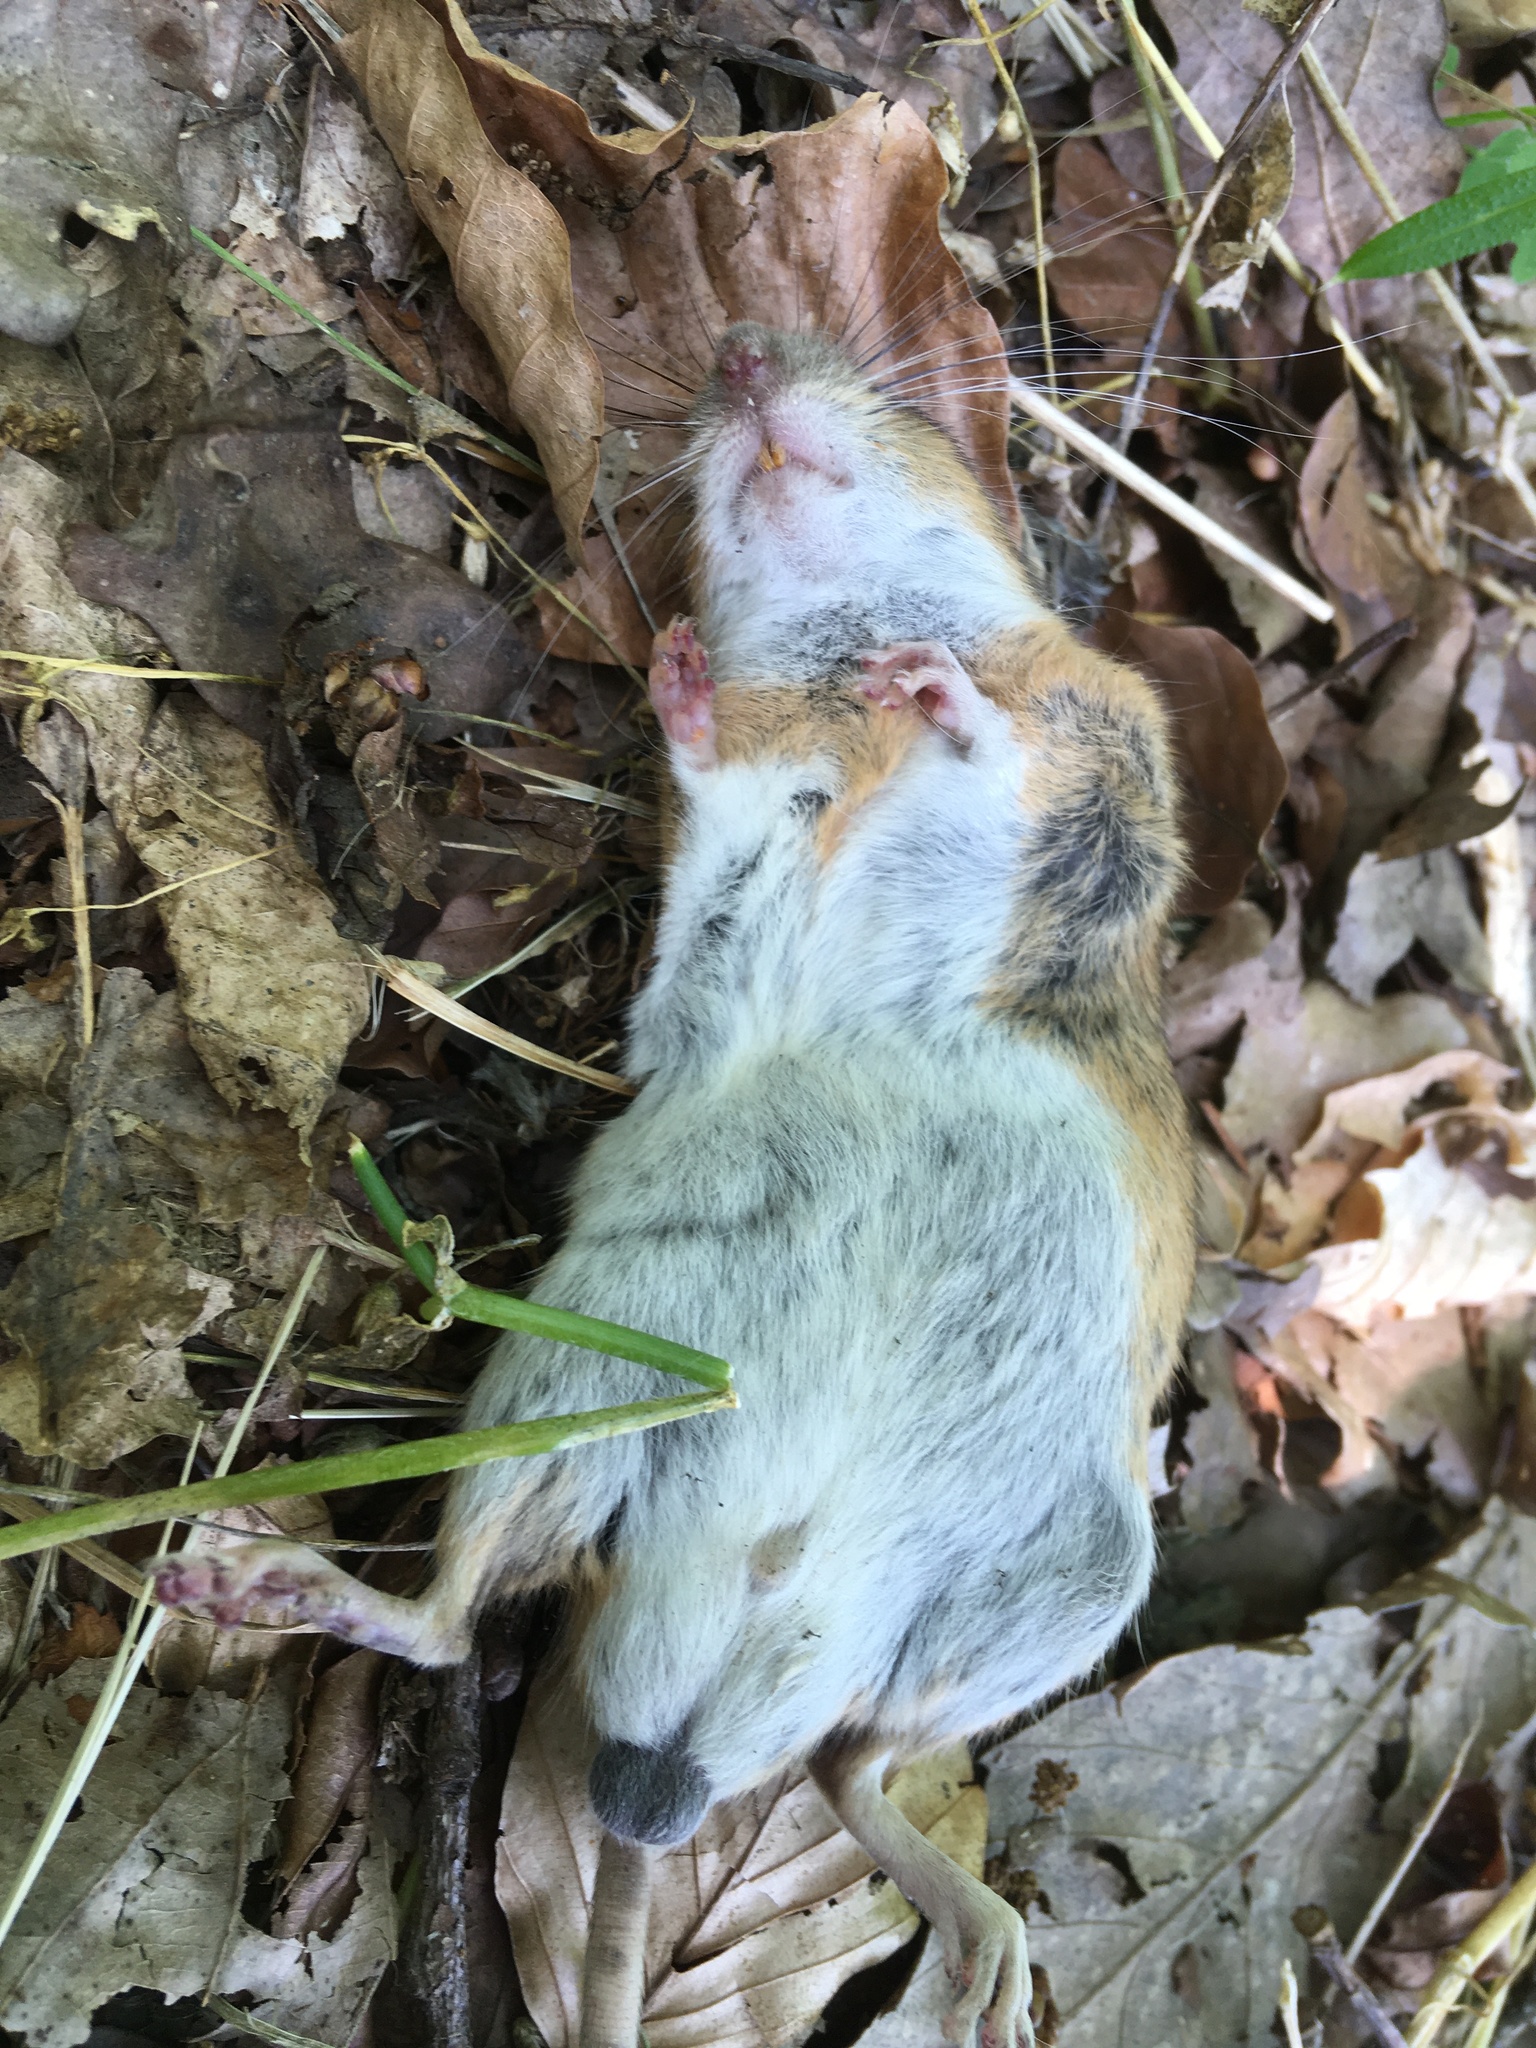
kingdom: Animalia
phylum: Chordata
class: Mammalia
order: Rodentia
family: Muridae
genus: Apodemus
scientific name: Apodemus flavicollis
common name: Yellow-necked field mouse
